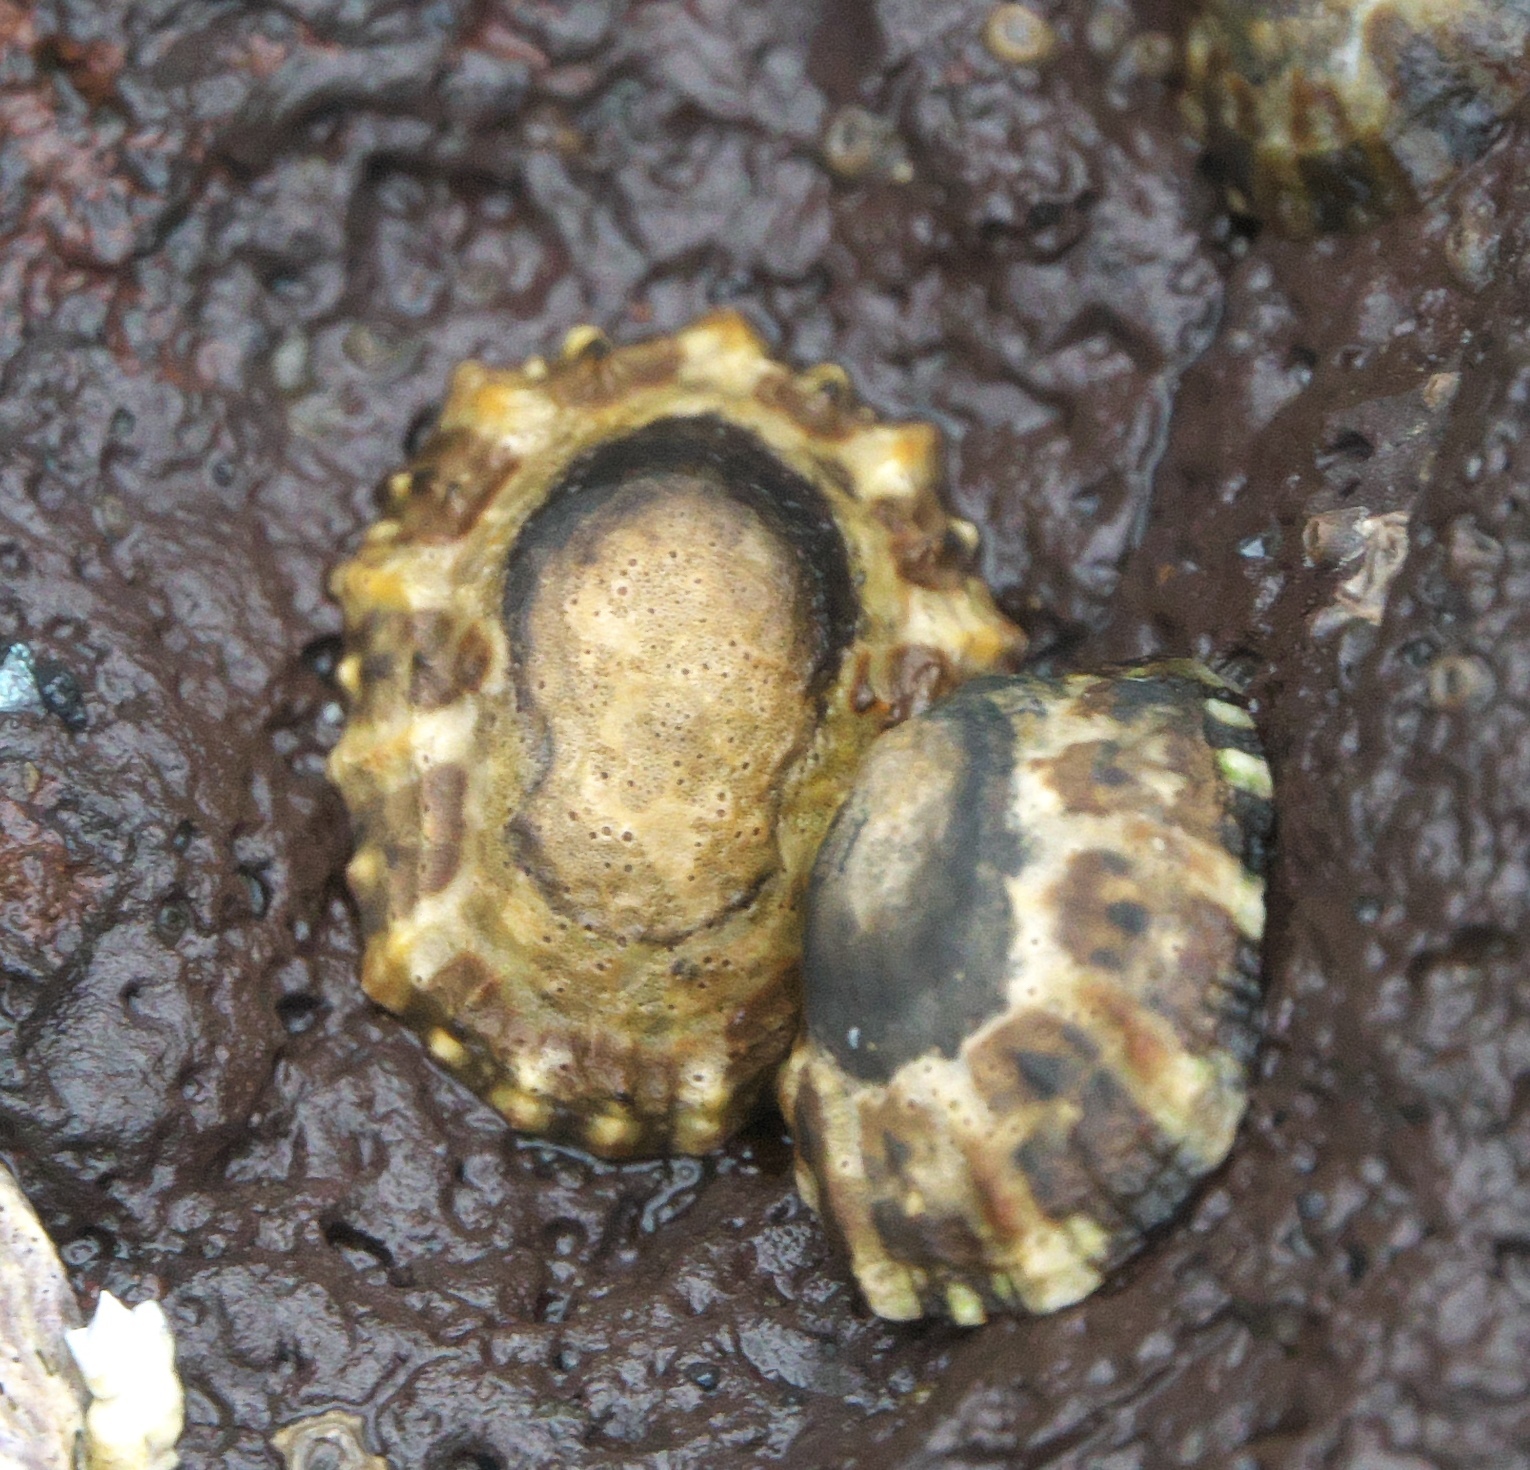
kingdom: Animalia
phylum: Mollusca
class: Gastropoda
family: Nacellidae
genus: Cellana
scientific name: Cellana ornata
